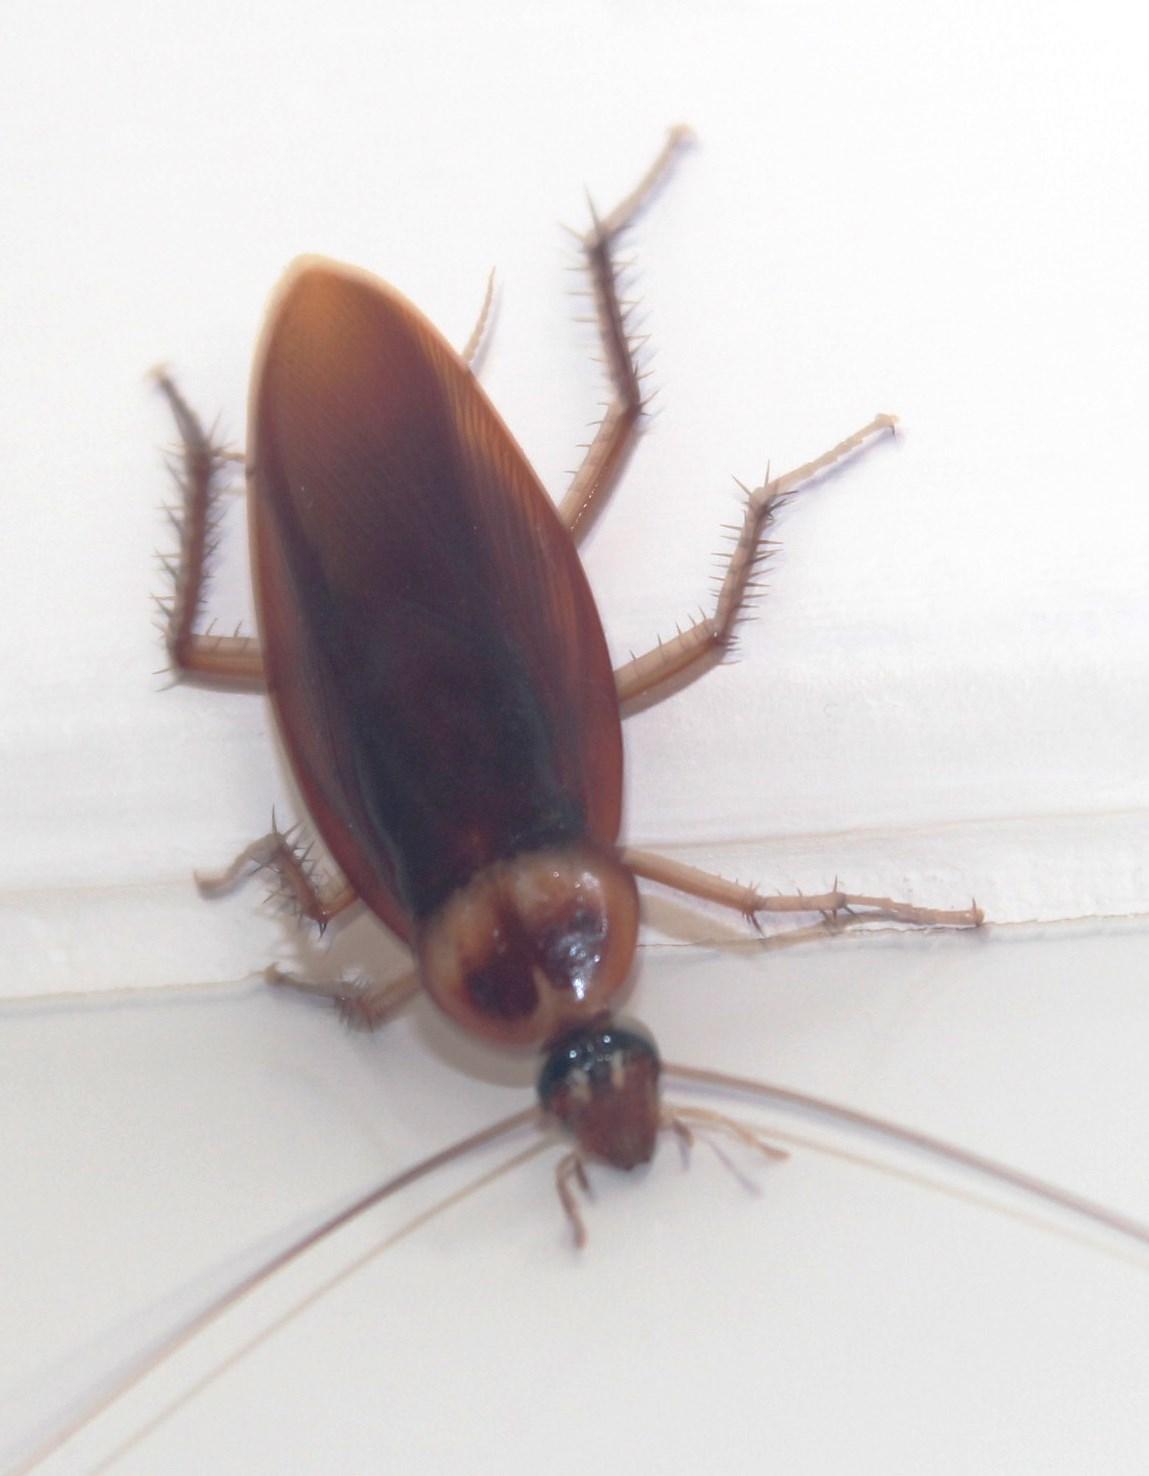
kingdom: Animalia
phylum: Arthropoda
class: Insecta
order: Blattodea
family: Blattidae
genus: Periplaneta
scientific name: Periplaneta americana
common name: American cockroach
